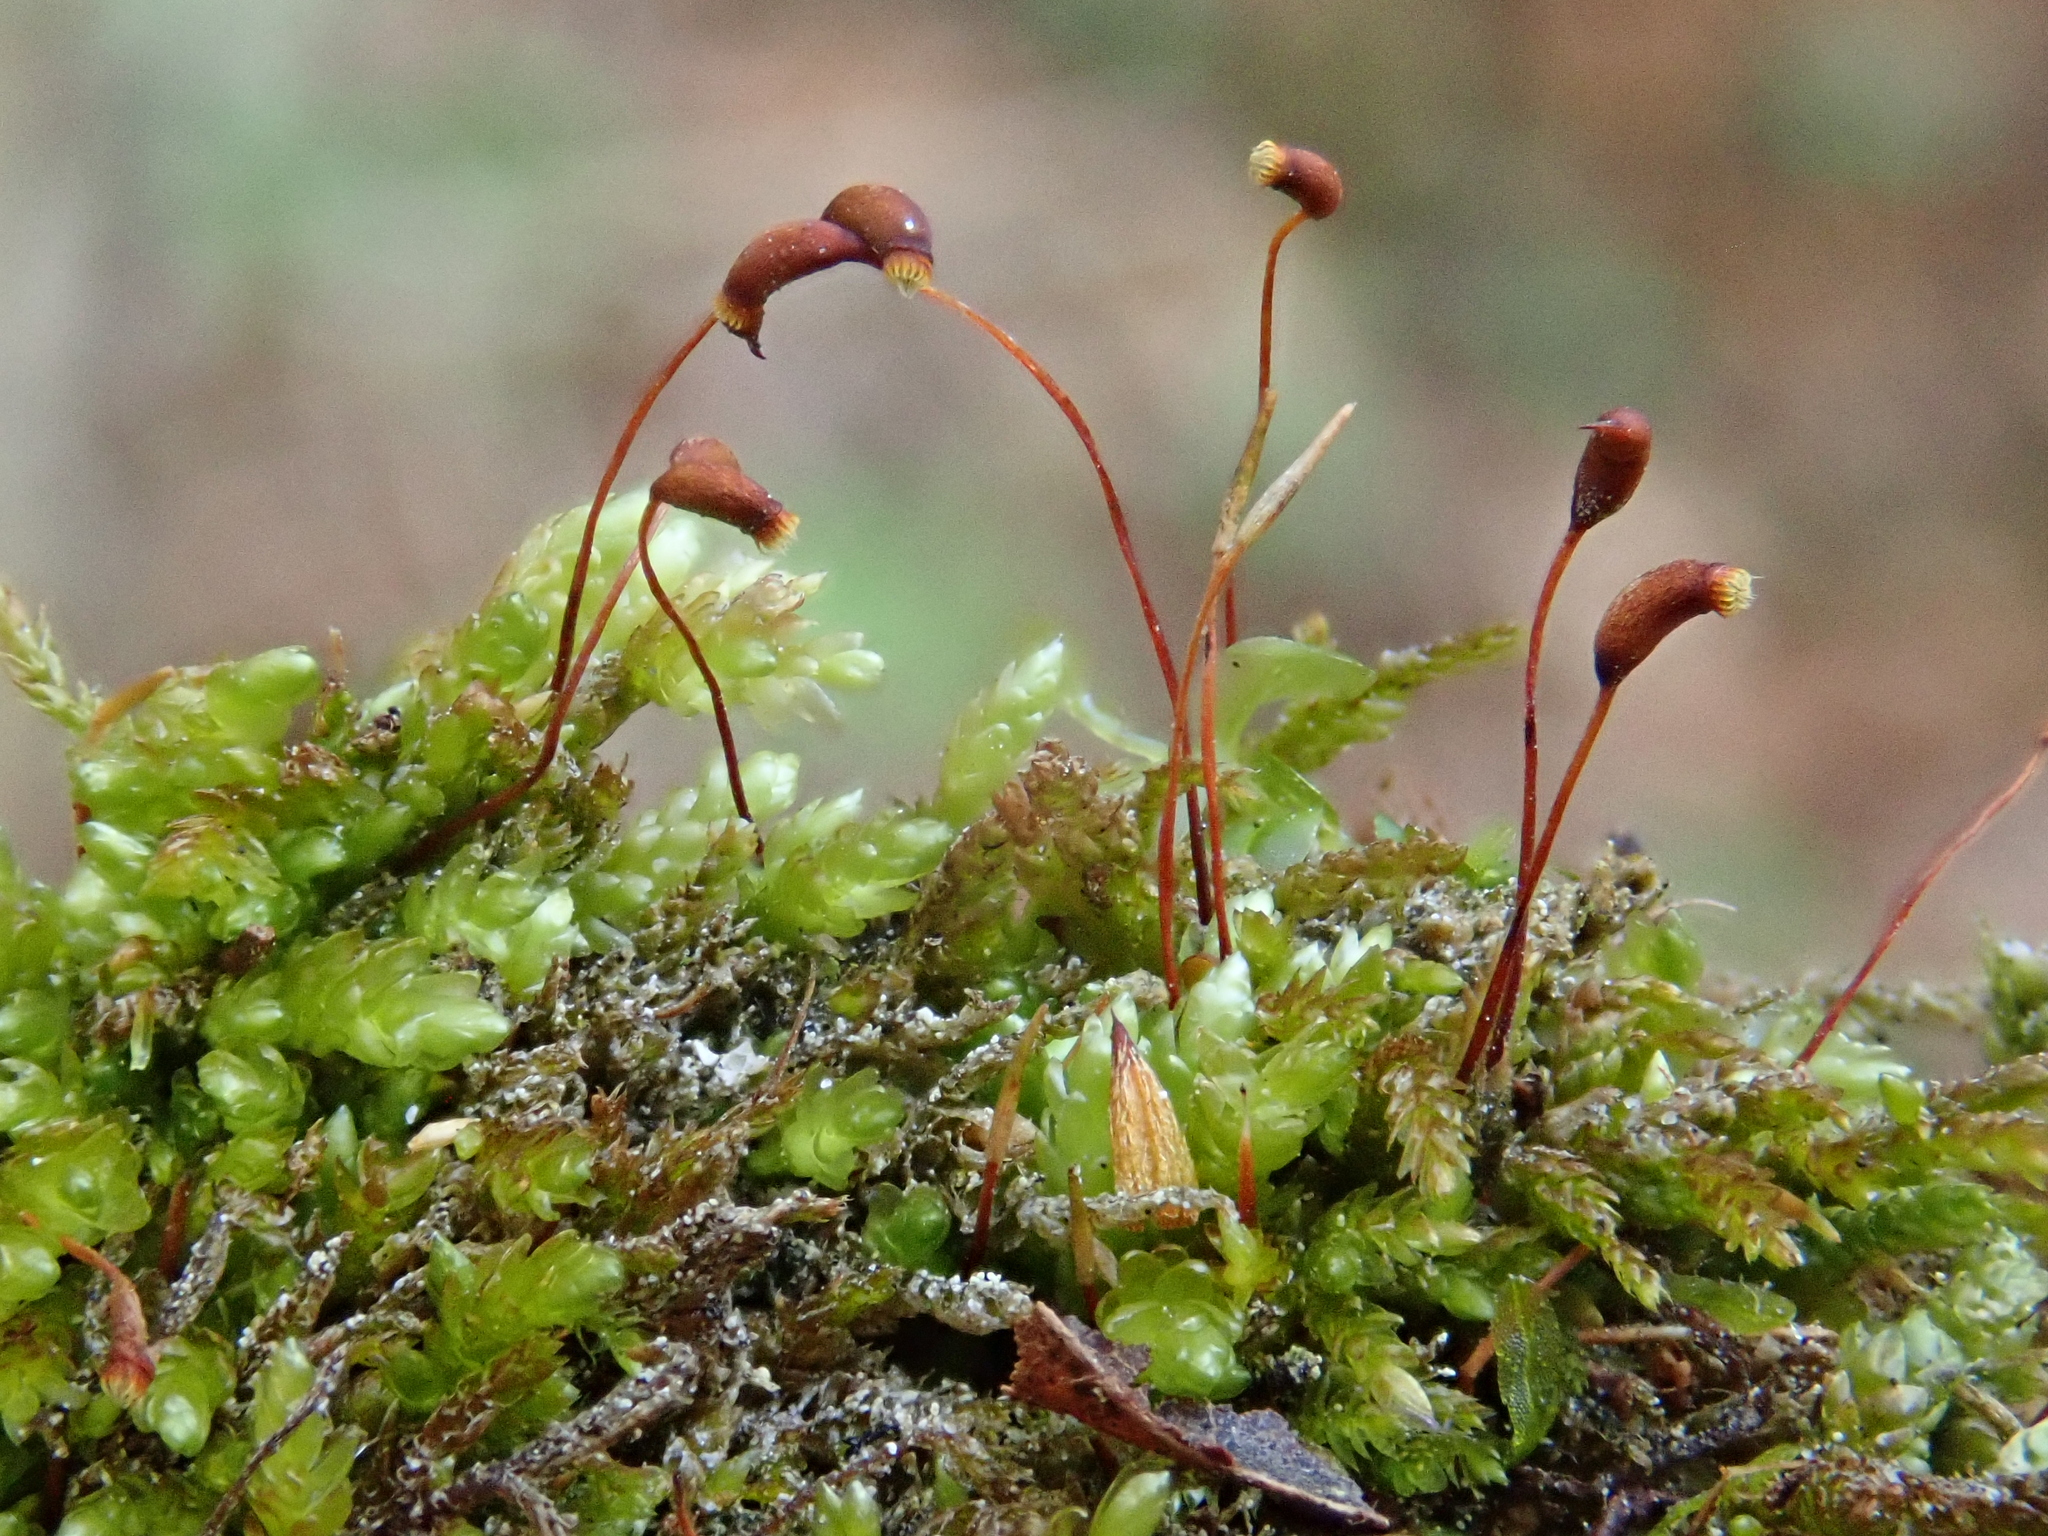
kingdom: Plantae
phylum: Bryophyta
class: Bryopsida
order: Hypnales
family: Brachytheciaceae
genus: Rhynchostegium
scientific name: Rhynchostegium murale
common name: Wall feather-moss
